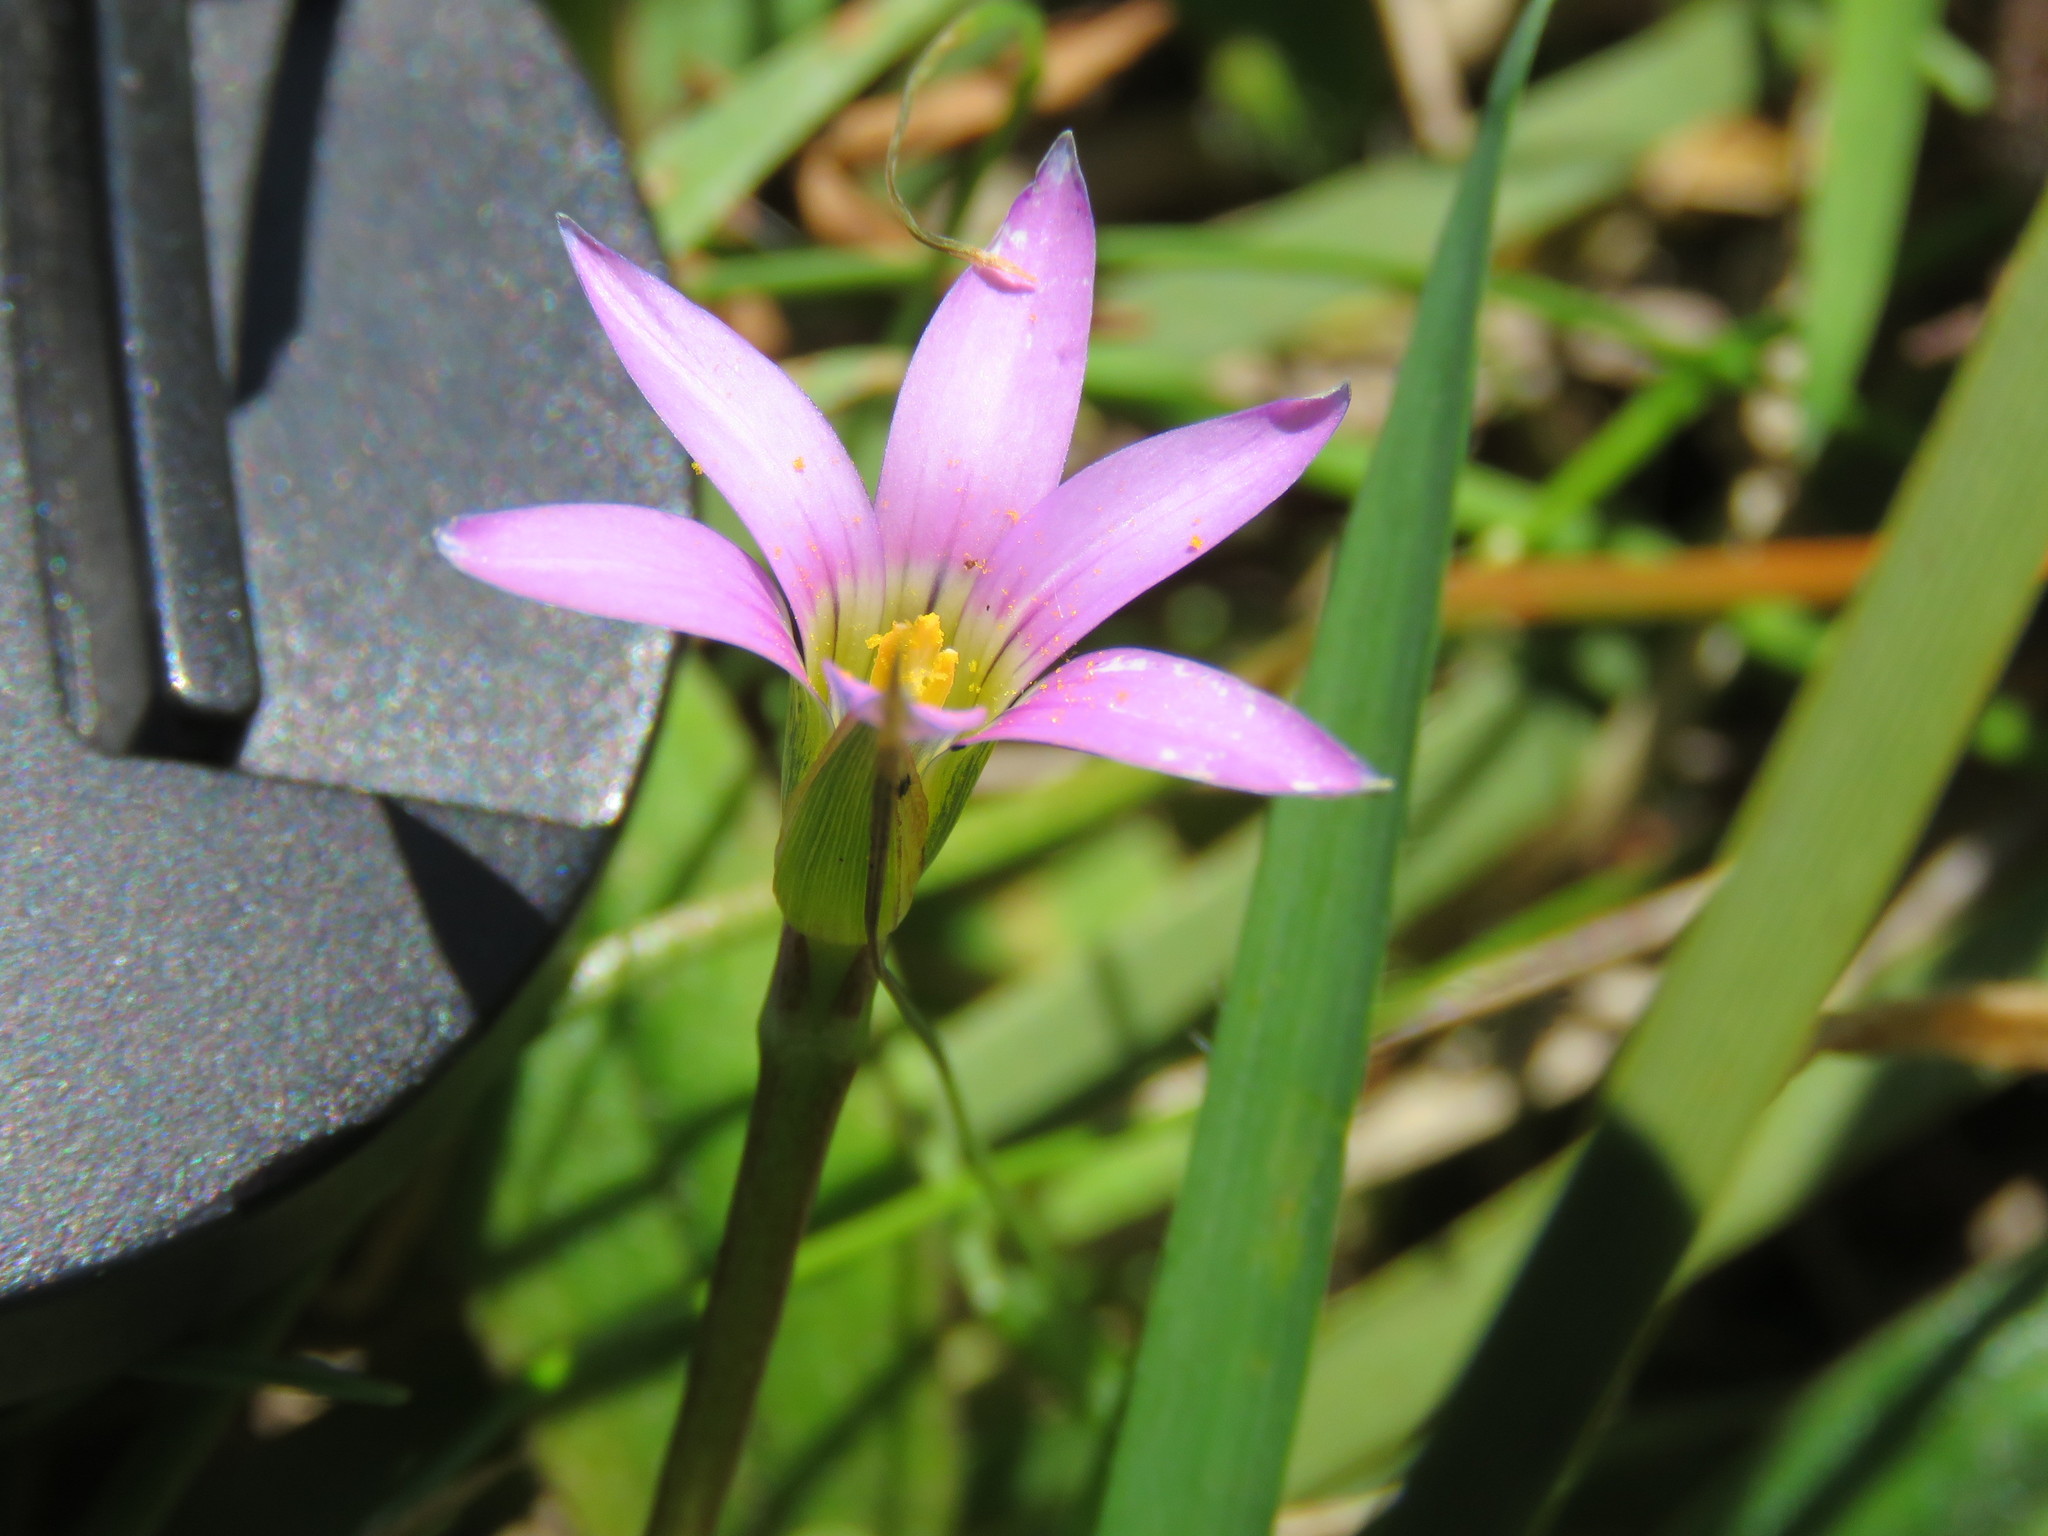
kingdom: Plantae
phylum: Tracheophyta
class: Liliopsida
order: Asparagales
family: Iridaceae
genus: Romulea
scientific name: Romulea rosea
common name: Oniongrass
